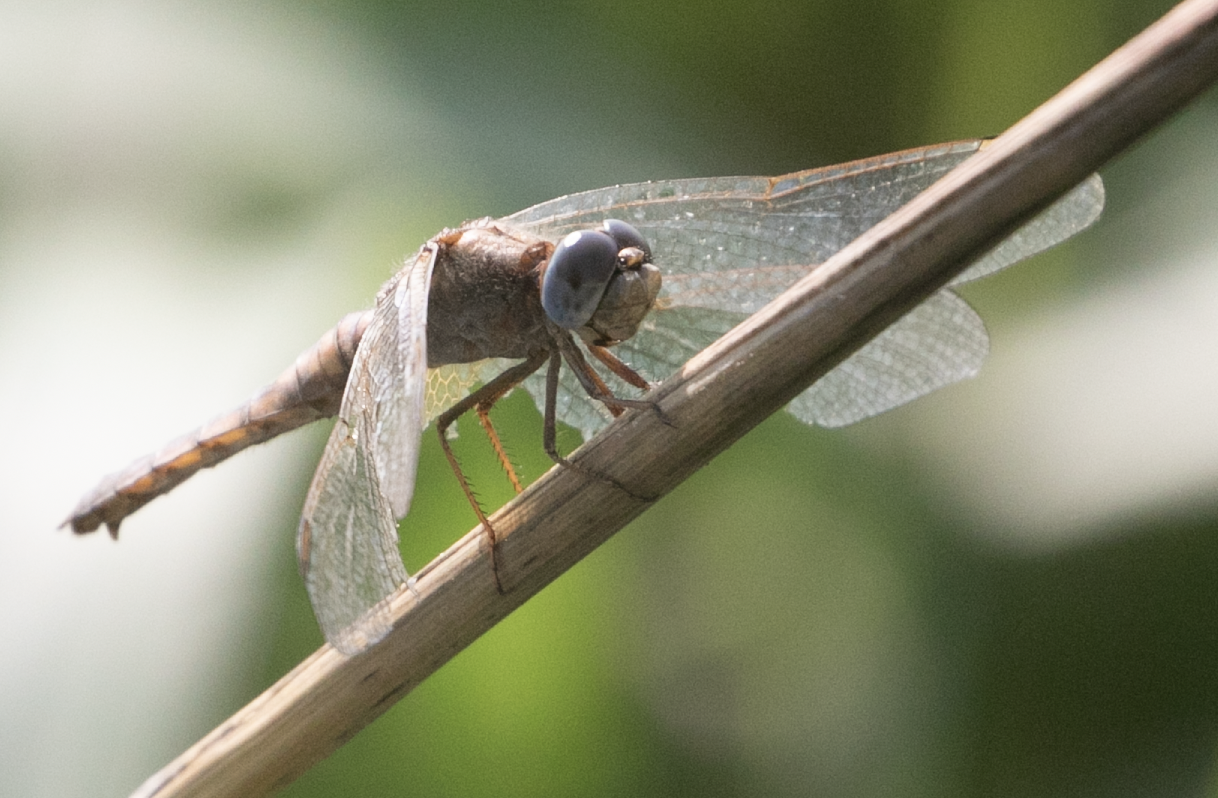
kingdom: Animalia
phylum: Arthropoda
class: Insecta
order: Odonata
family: Libellulidae
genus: Crocothemis
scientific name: Crocothemis erythraea
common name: Scarlet dragonfly
